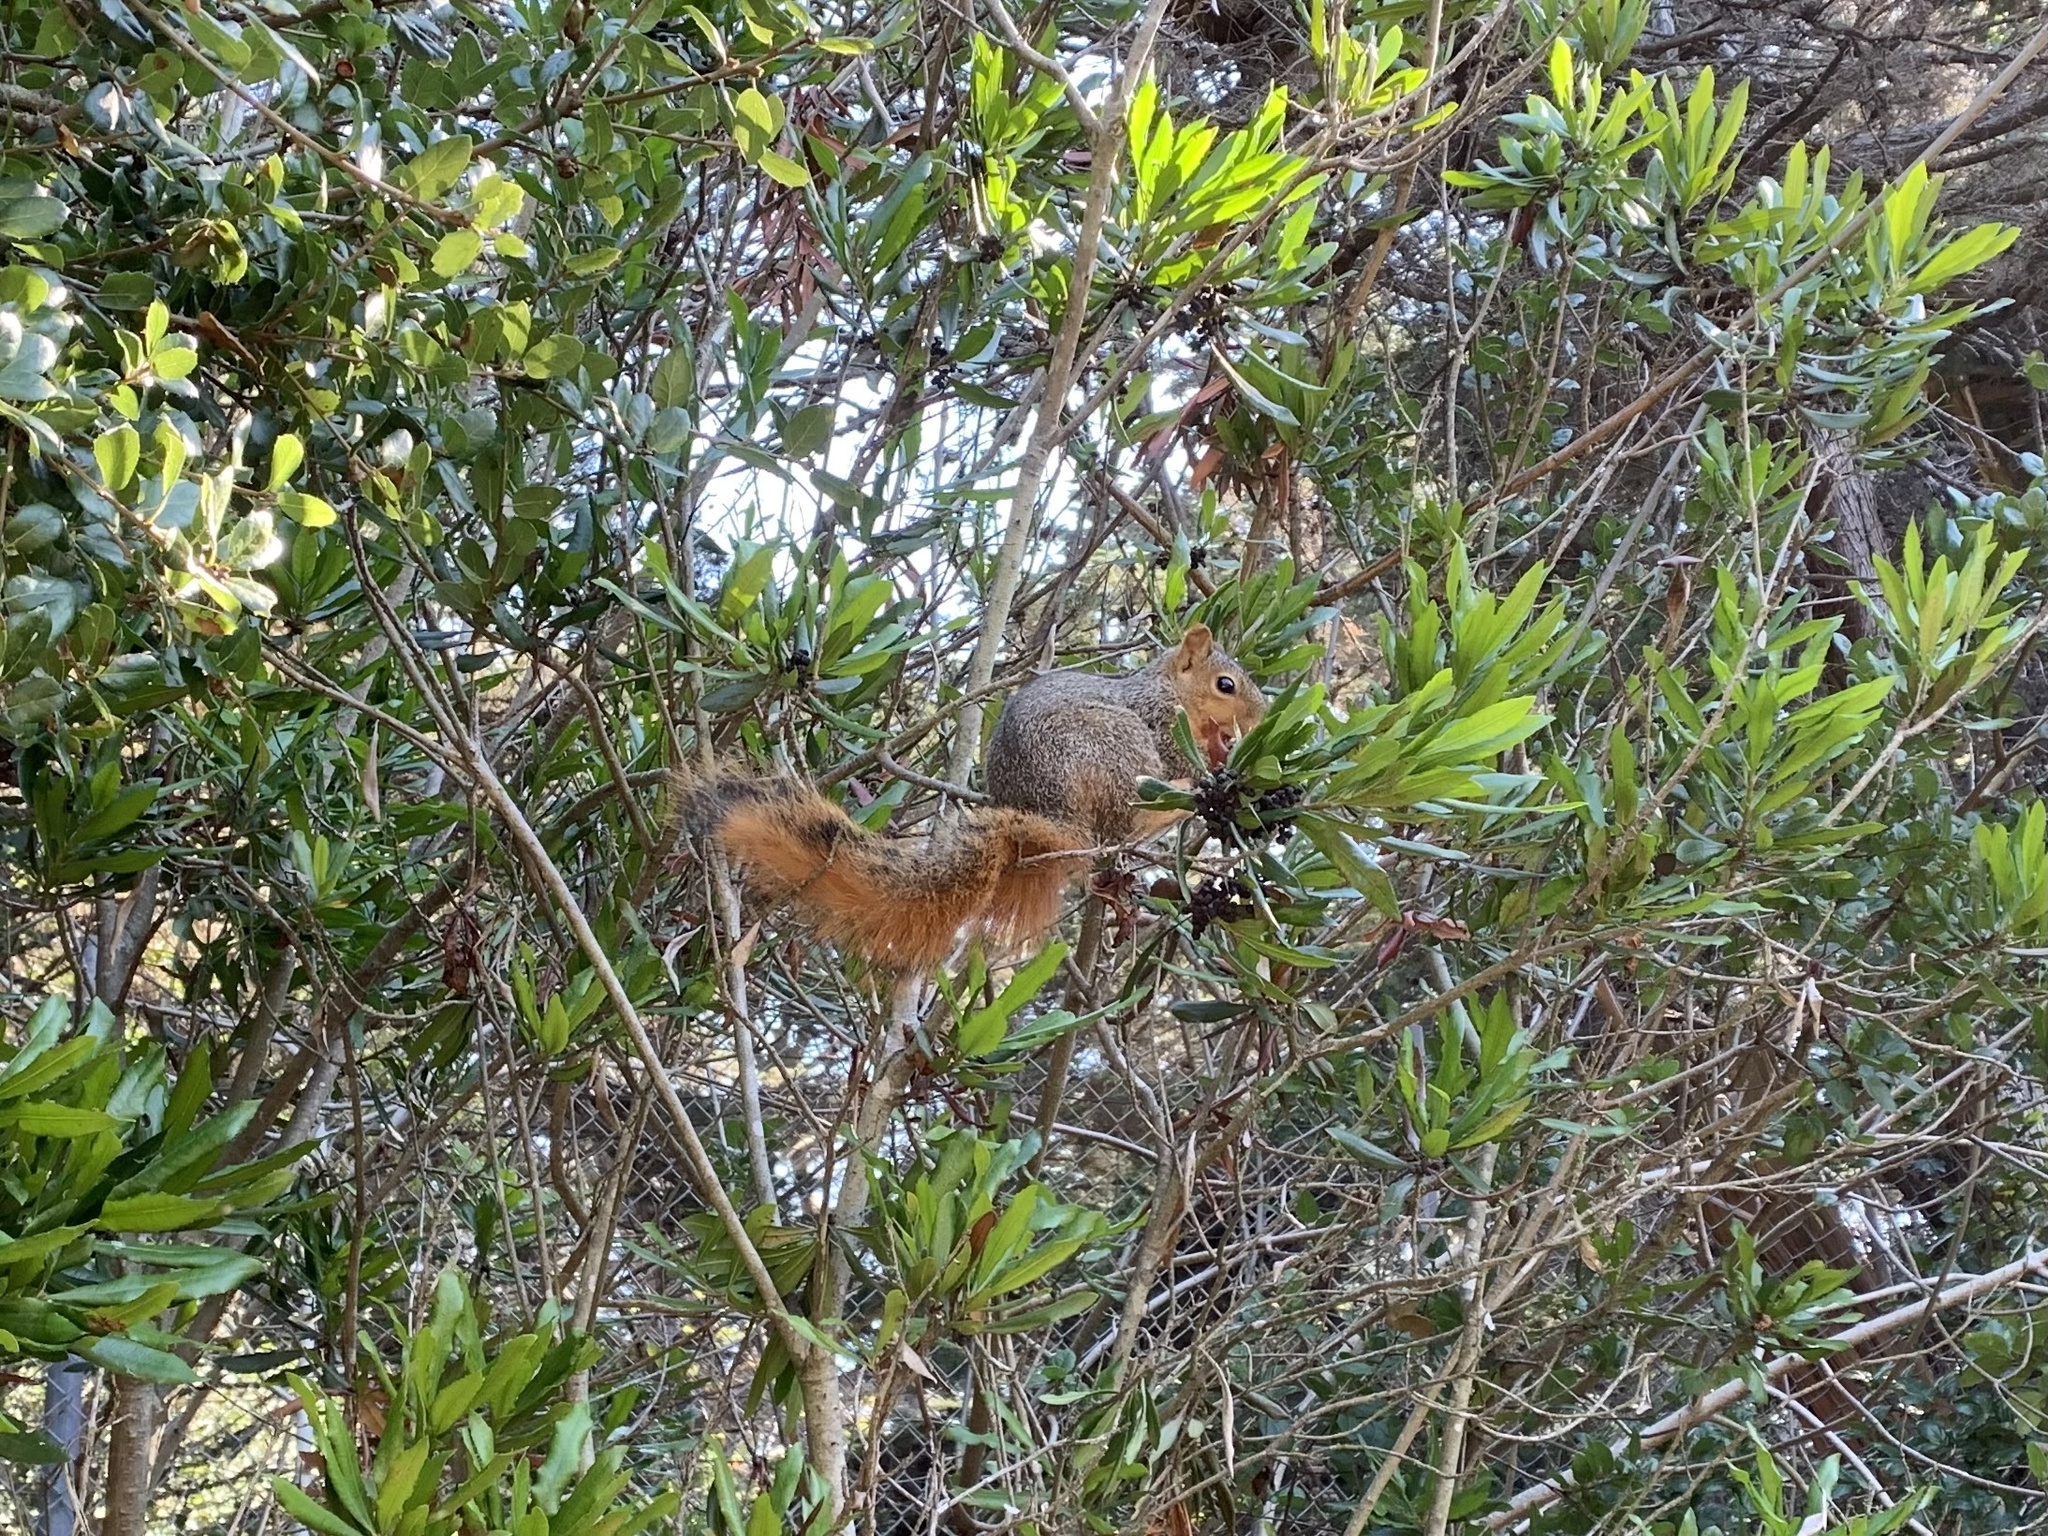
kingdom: Animalia
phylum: Chordata
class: Mammalia
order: Rodentia
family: Sciuridae
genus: Sciurus
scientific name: Sciurus niger
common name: Fox squirrel
